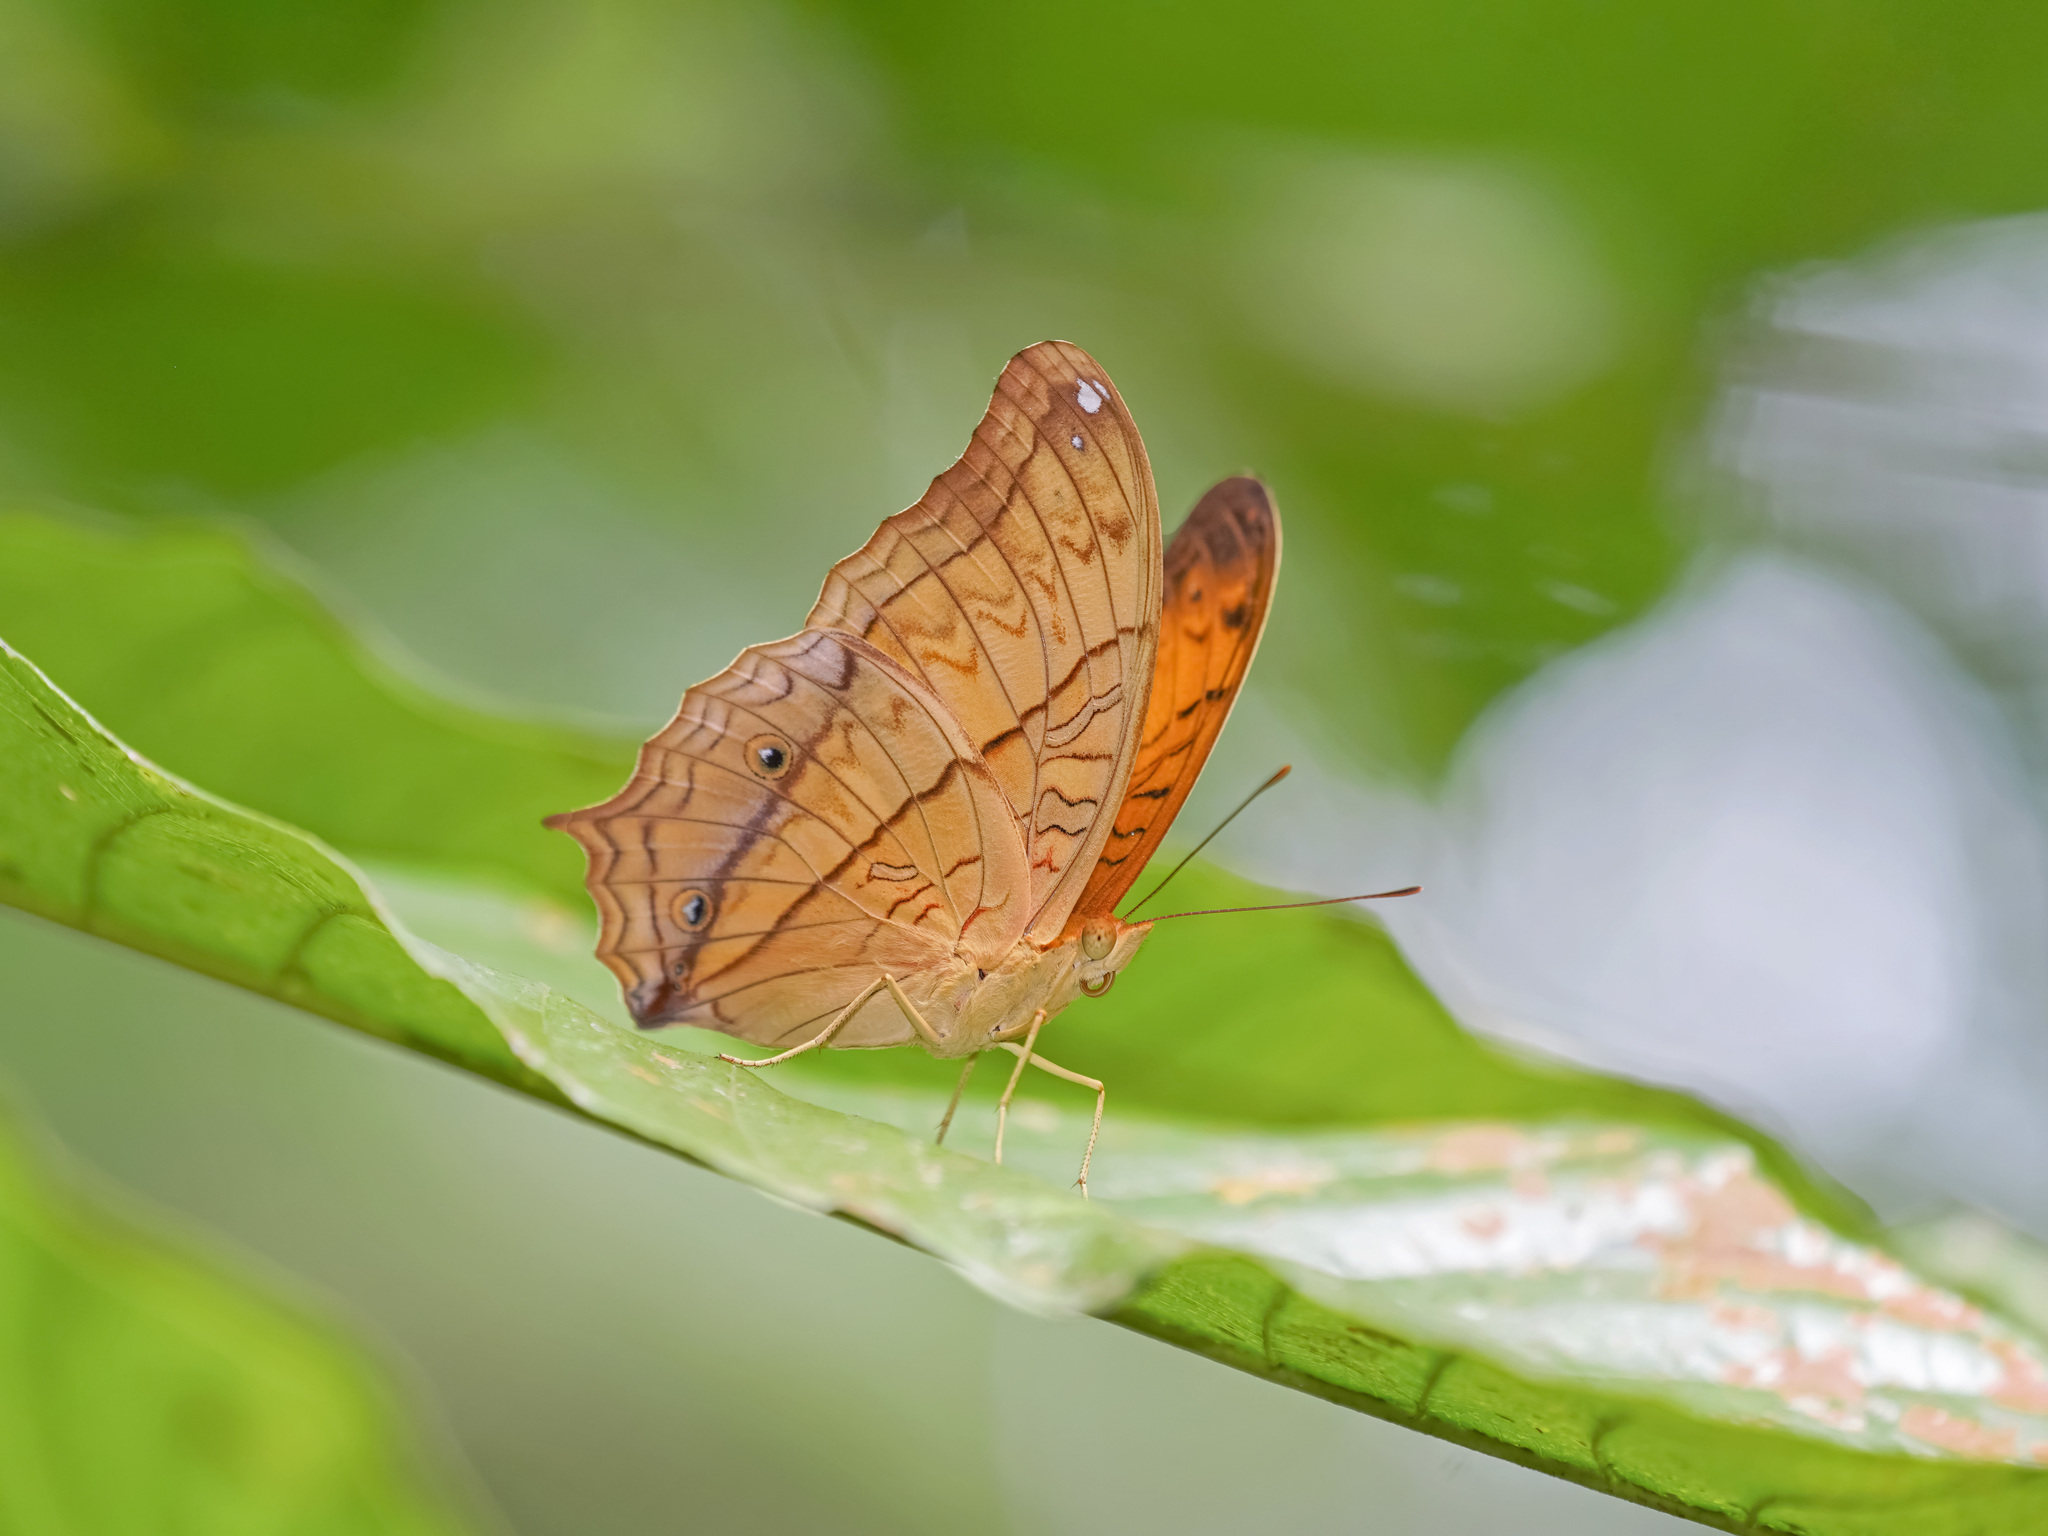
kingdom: Animalia
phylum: Arthropoda
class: Insecta
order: Lepidoptera
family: Nymphalidae
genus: Vindula
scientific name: Vindula deione
